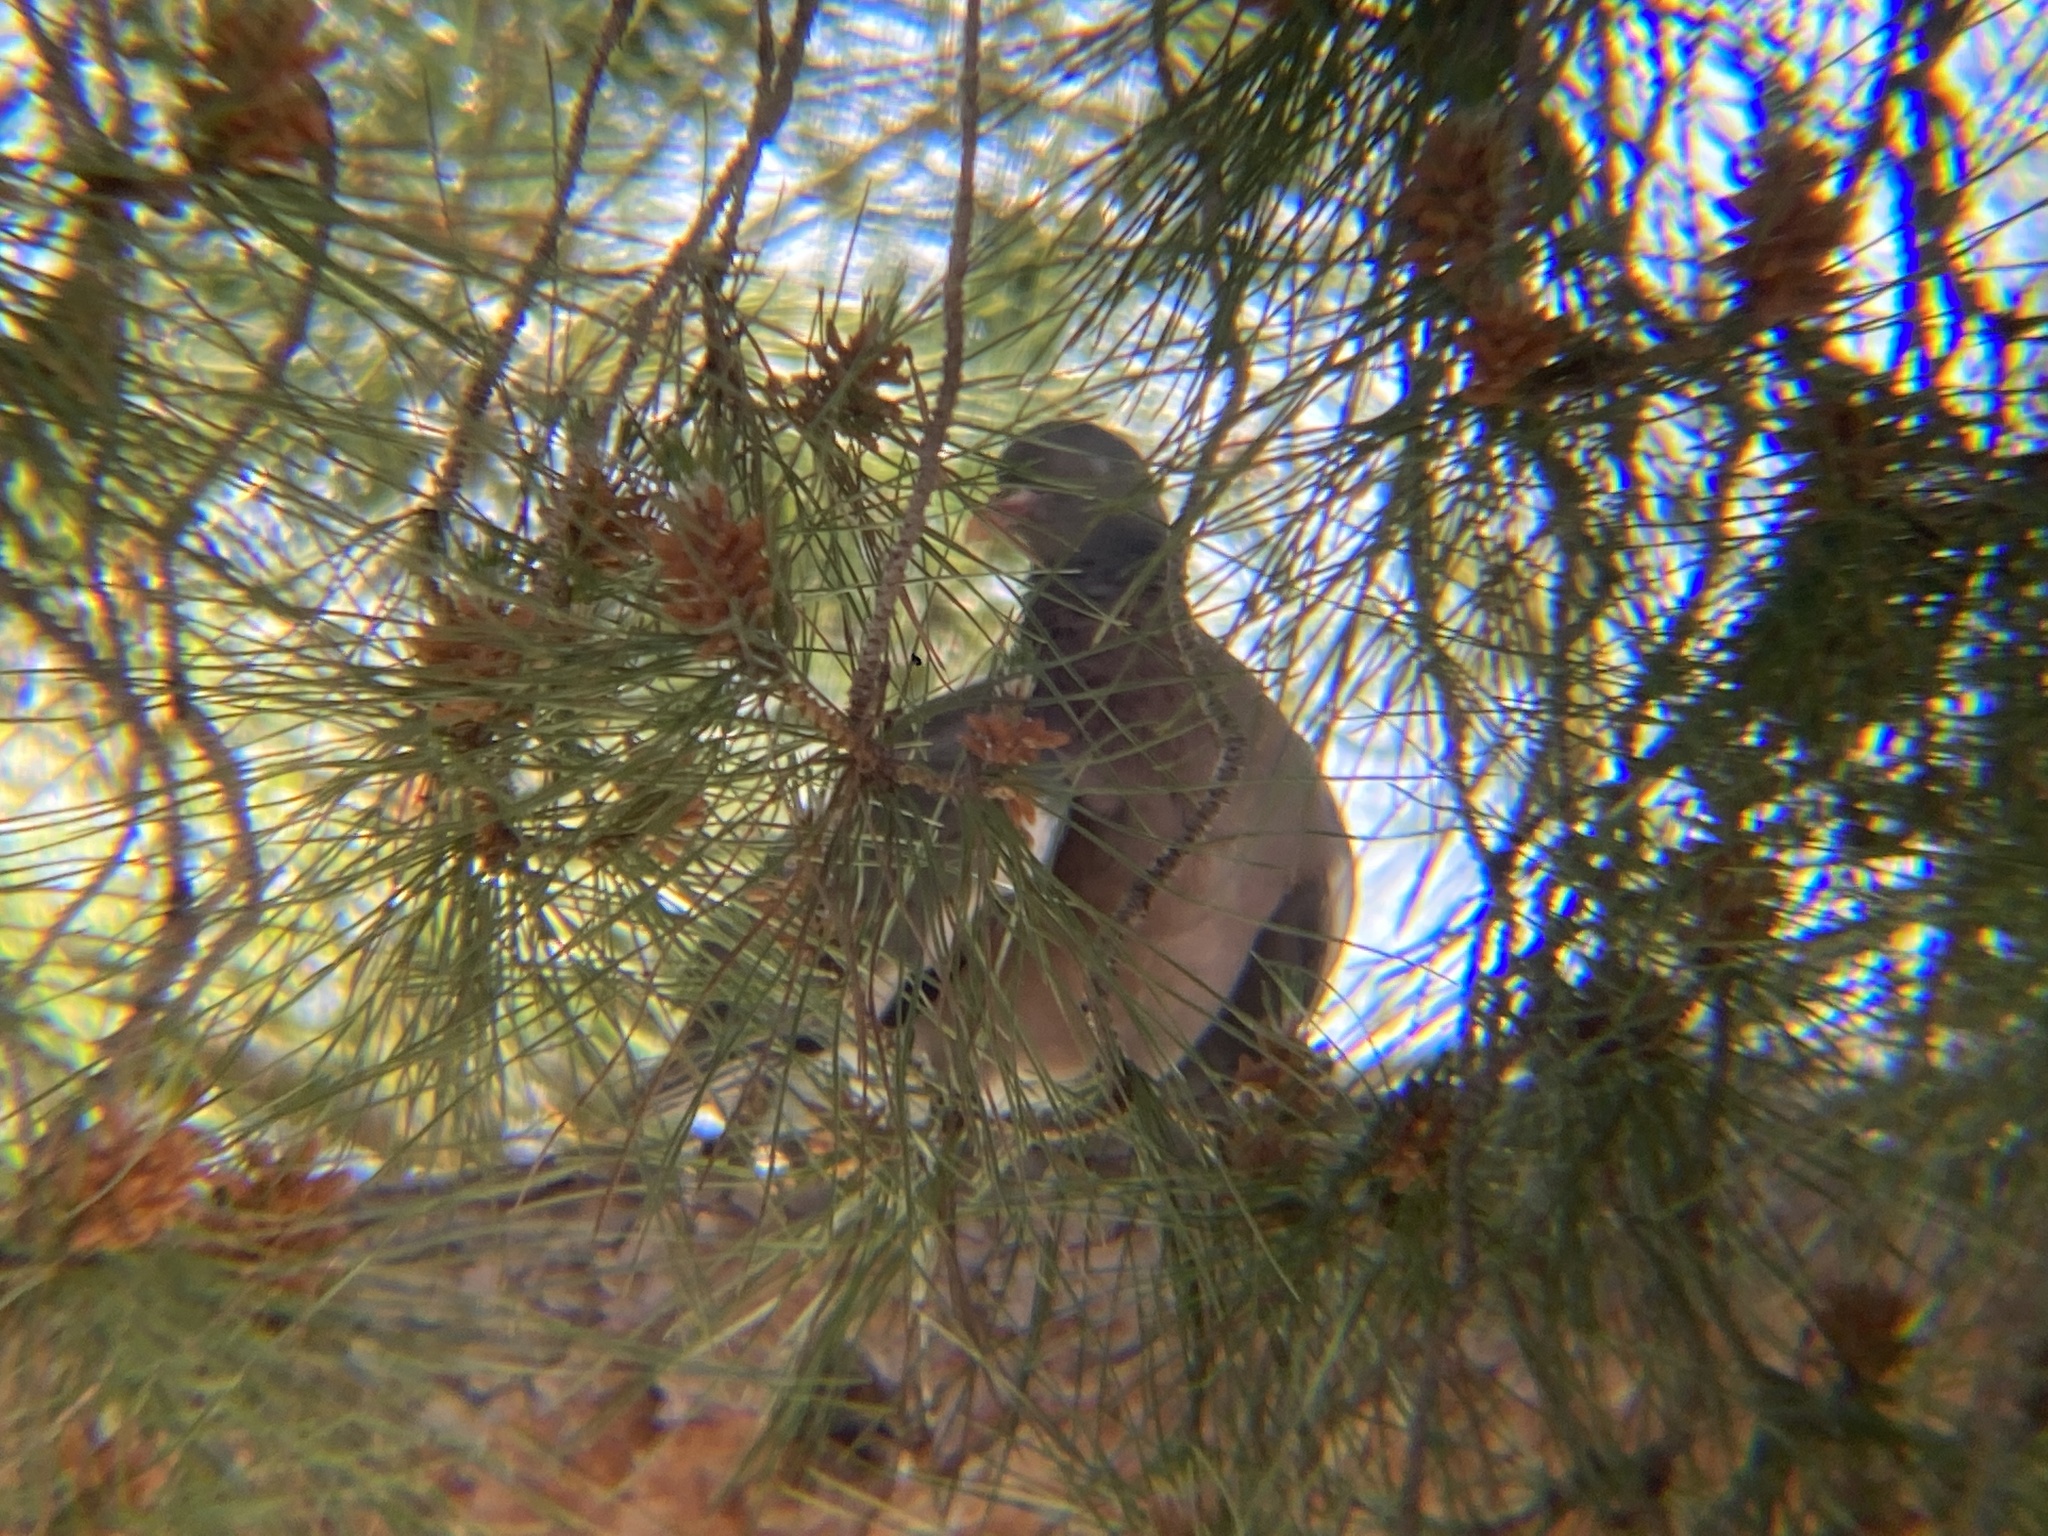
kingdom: Animalia
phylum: Chordata
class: Aves
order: Columbiformes
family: Columbidae
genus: Columba
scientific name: Columba palumbus
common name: Common wood pigeon
